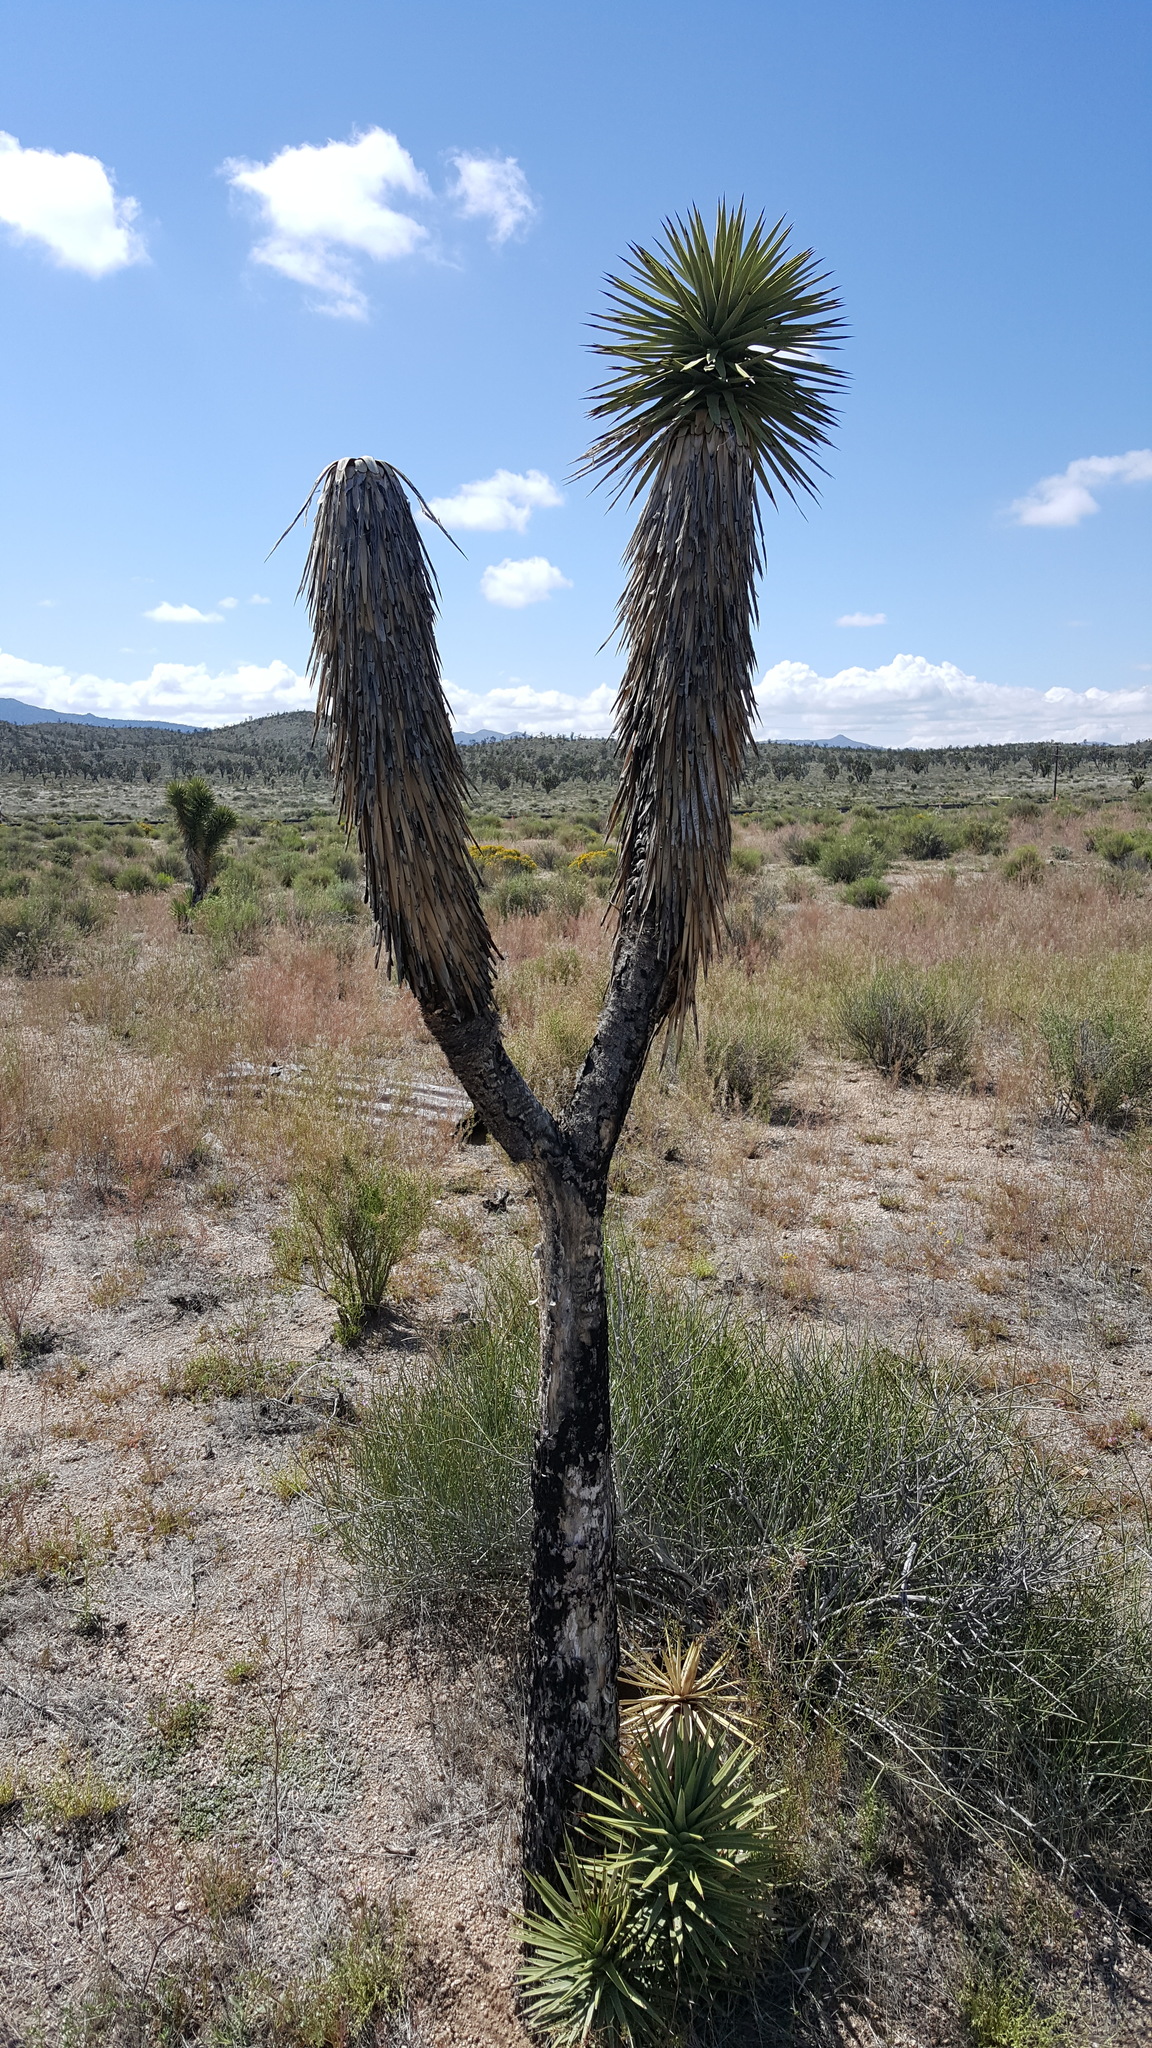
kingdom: Plantae
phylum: Tracheophyta
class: Liliopsida
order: Asparagales
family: Asparagaceae
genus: Yucca
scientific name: Yucca brevifolia
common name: Joshua tree
